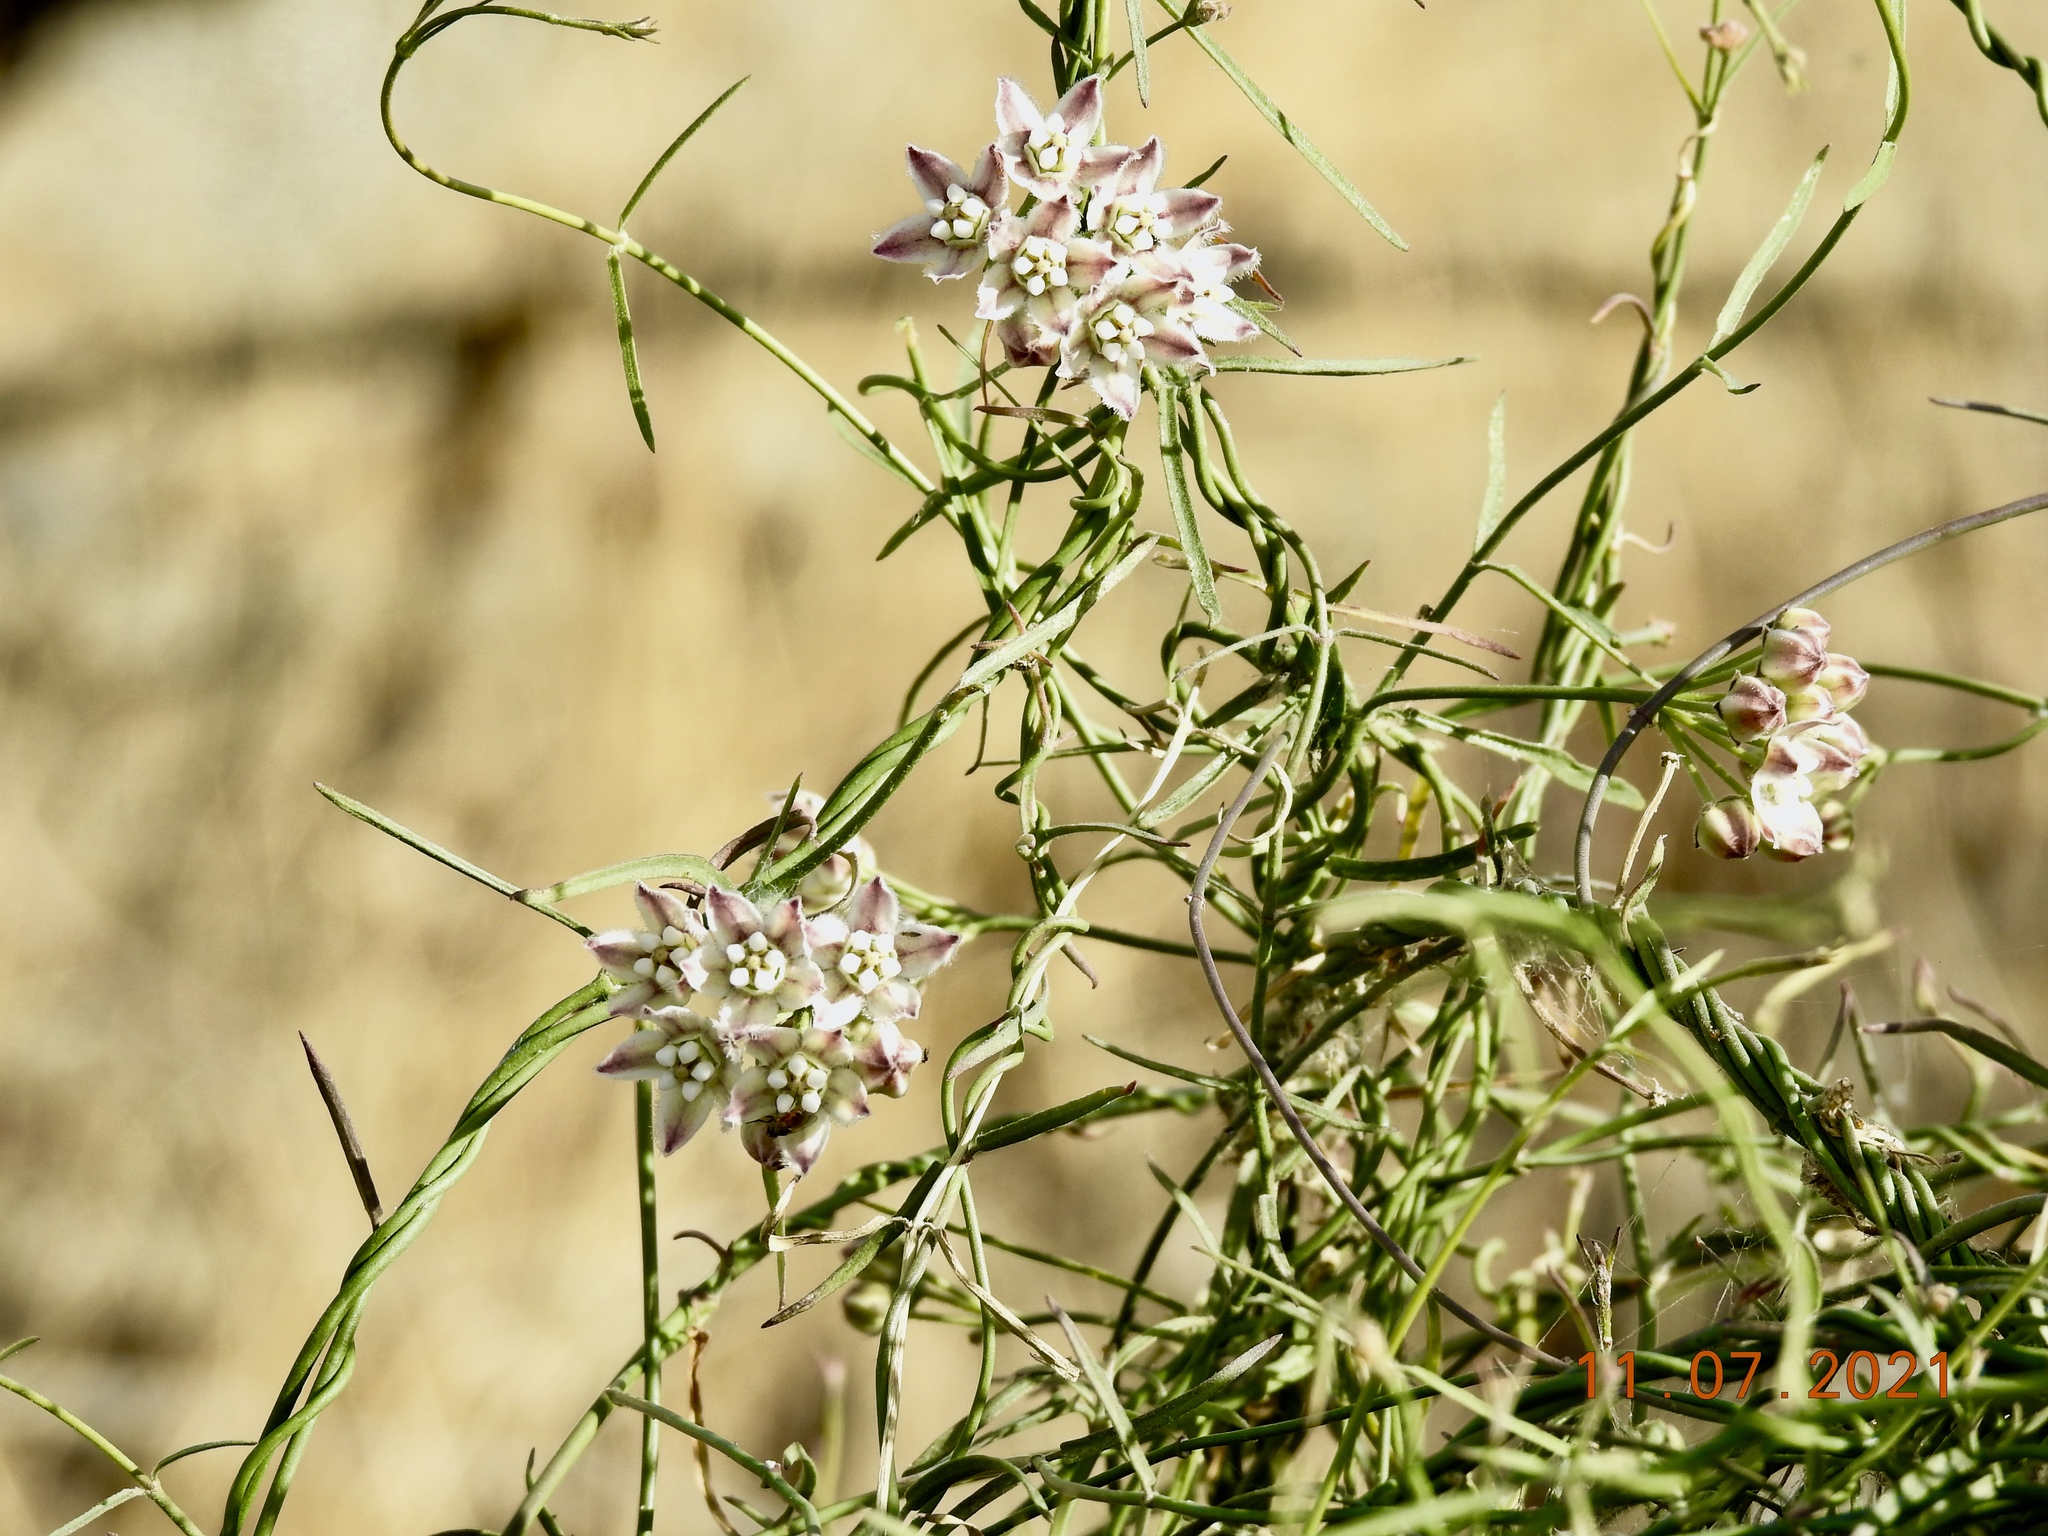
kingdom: Plantae
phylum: Tracheophyta
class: Magnoliopsida
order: Gentianales
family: Apocynaceae
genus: Funastrum
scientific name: Funastrum heterophyllum
